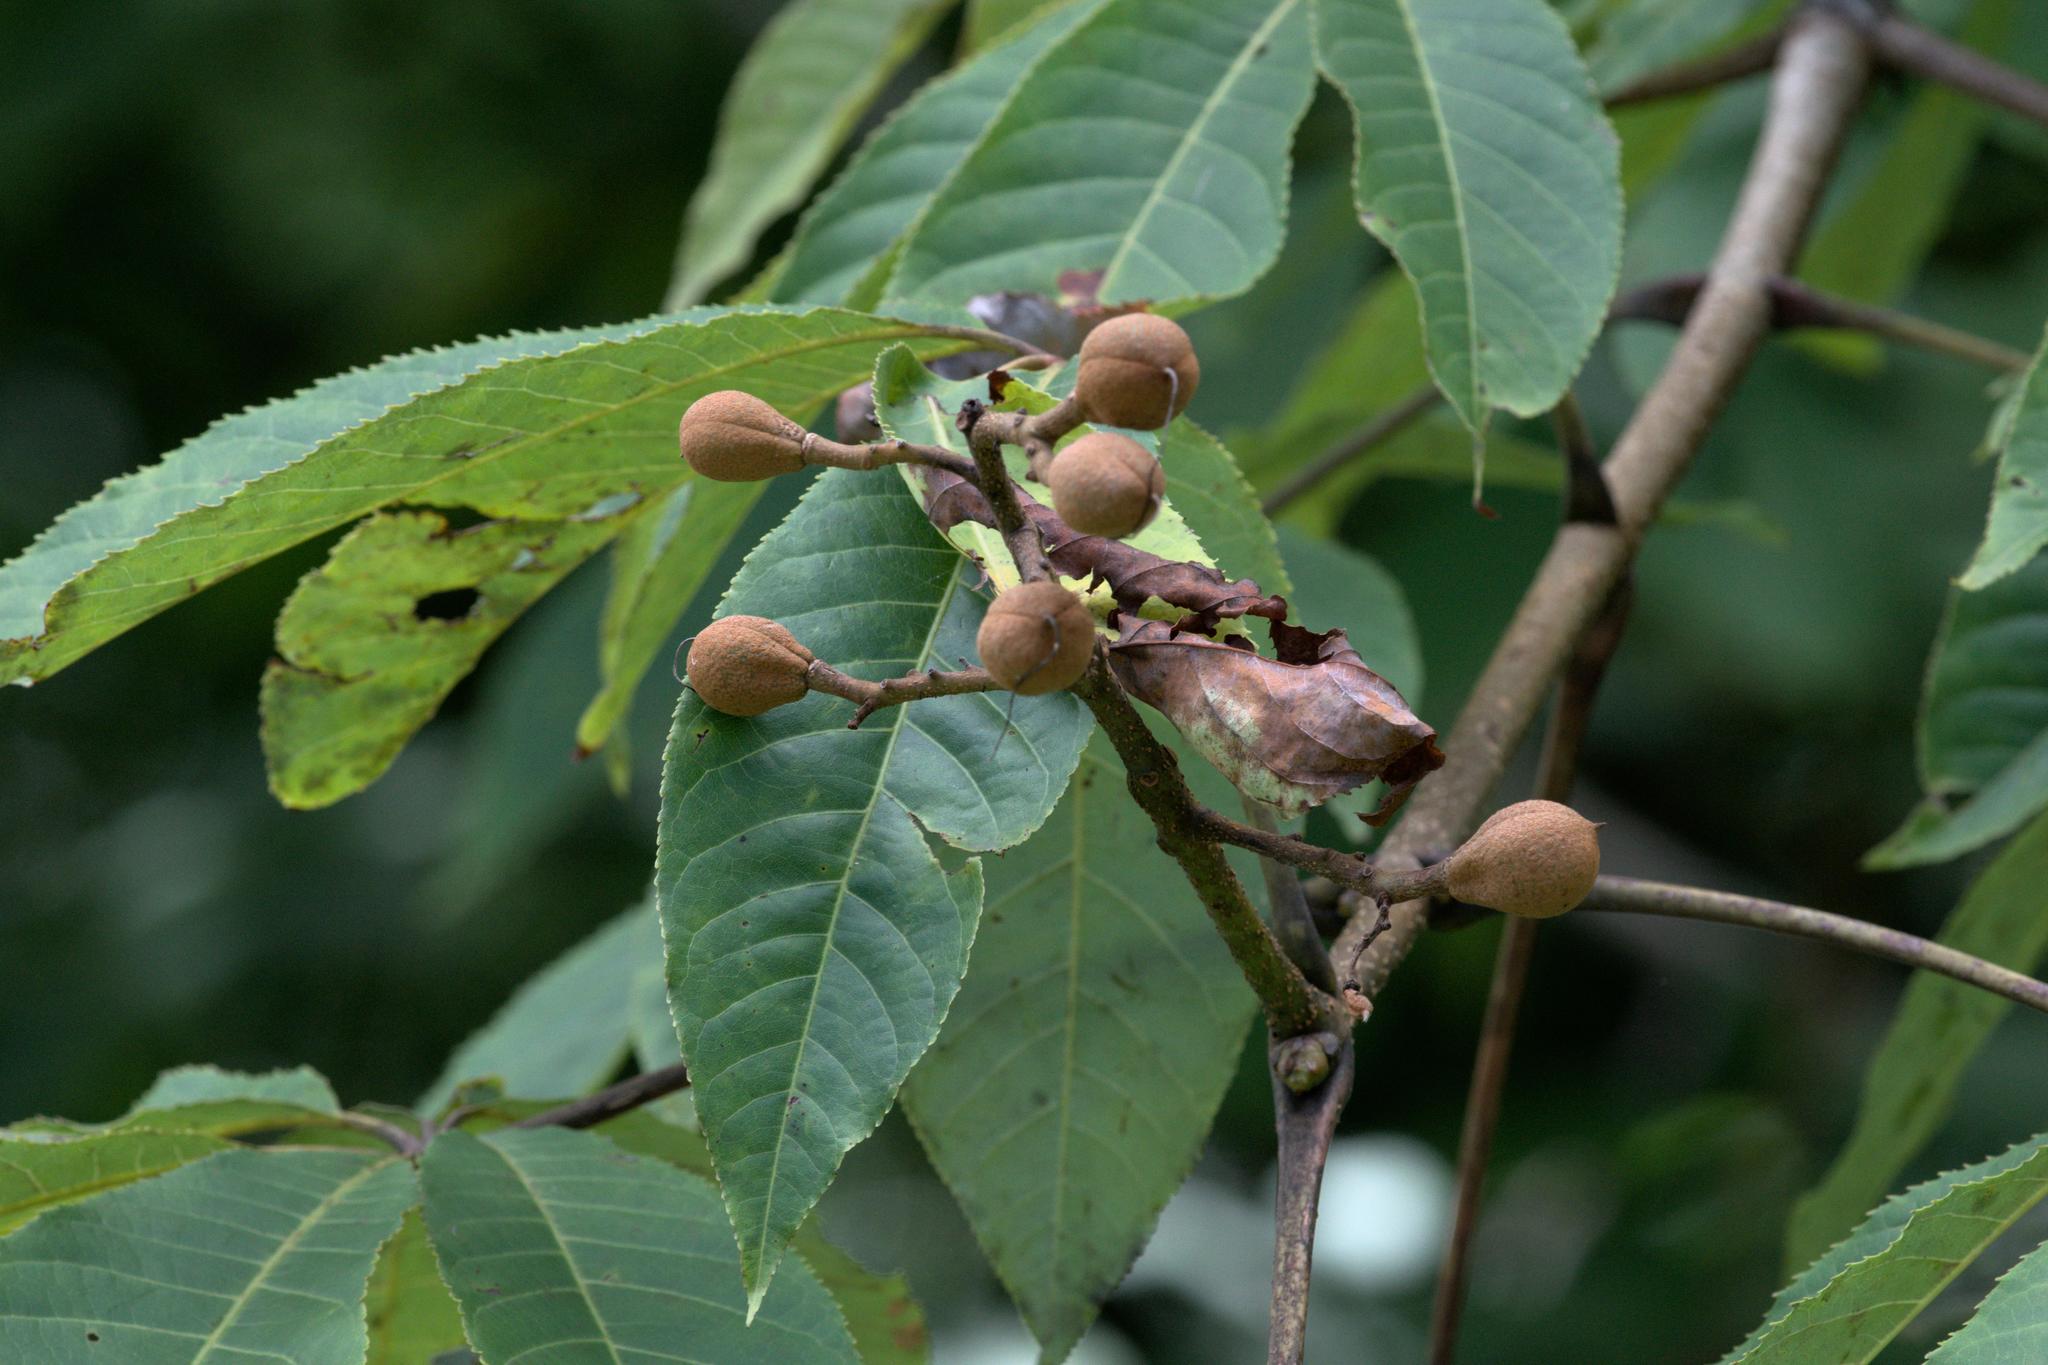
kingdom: Plantae
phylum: Tracheophyta
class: Magnoliopsida
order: Sapindales
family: Sapindaceae
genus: Aesculus
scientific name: Aesculus indica
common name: Indian horse-chestnut
